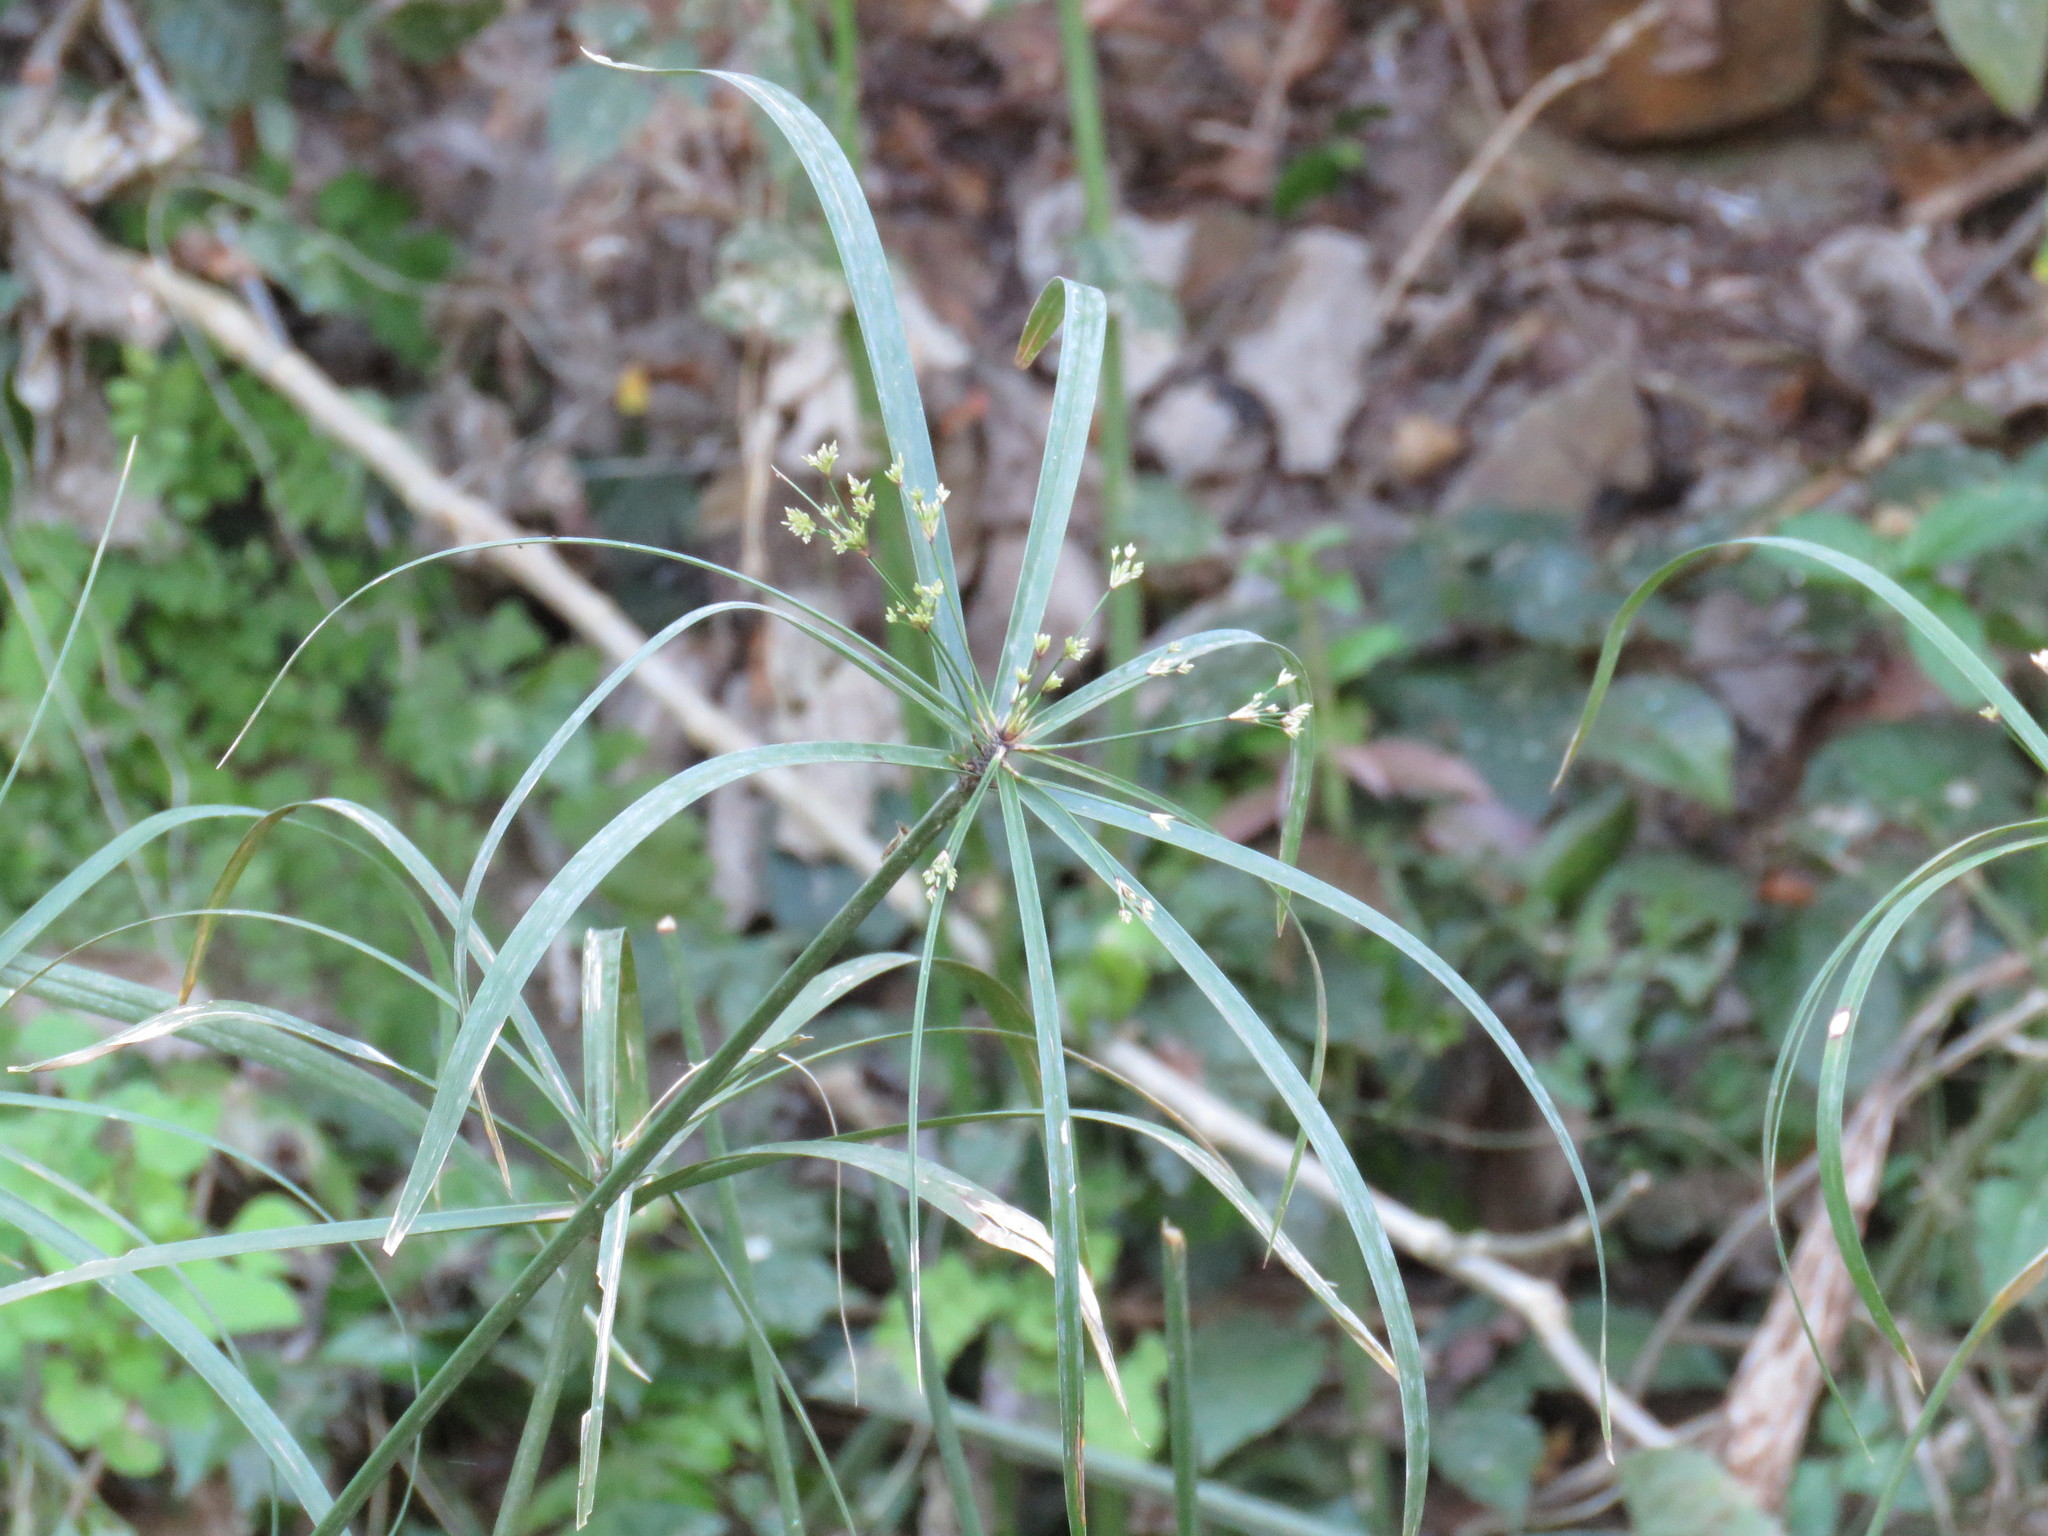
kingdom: Plantae
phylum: Tracheophyta
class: Liliopsida
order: Poales
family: Cyperaceae
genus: Cyperus
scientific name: Cyperus canus
